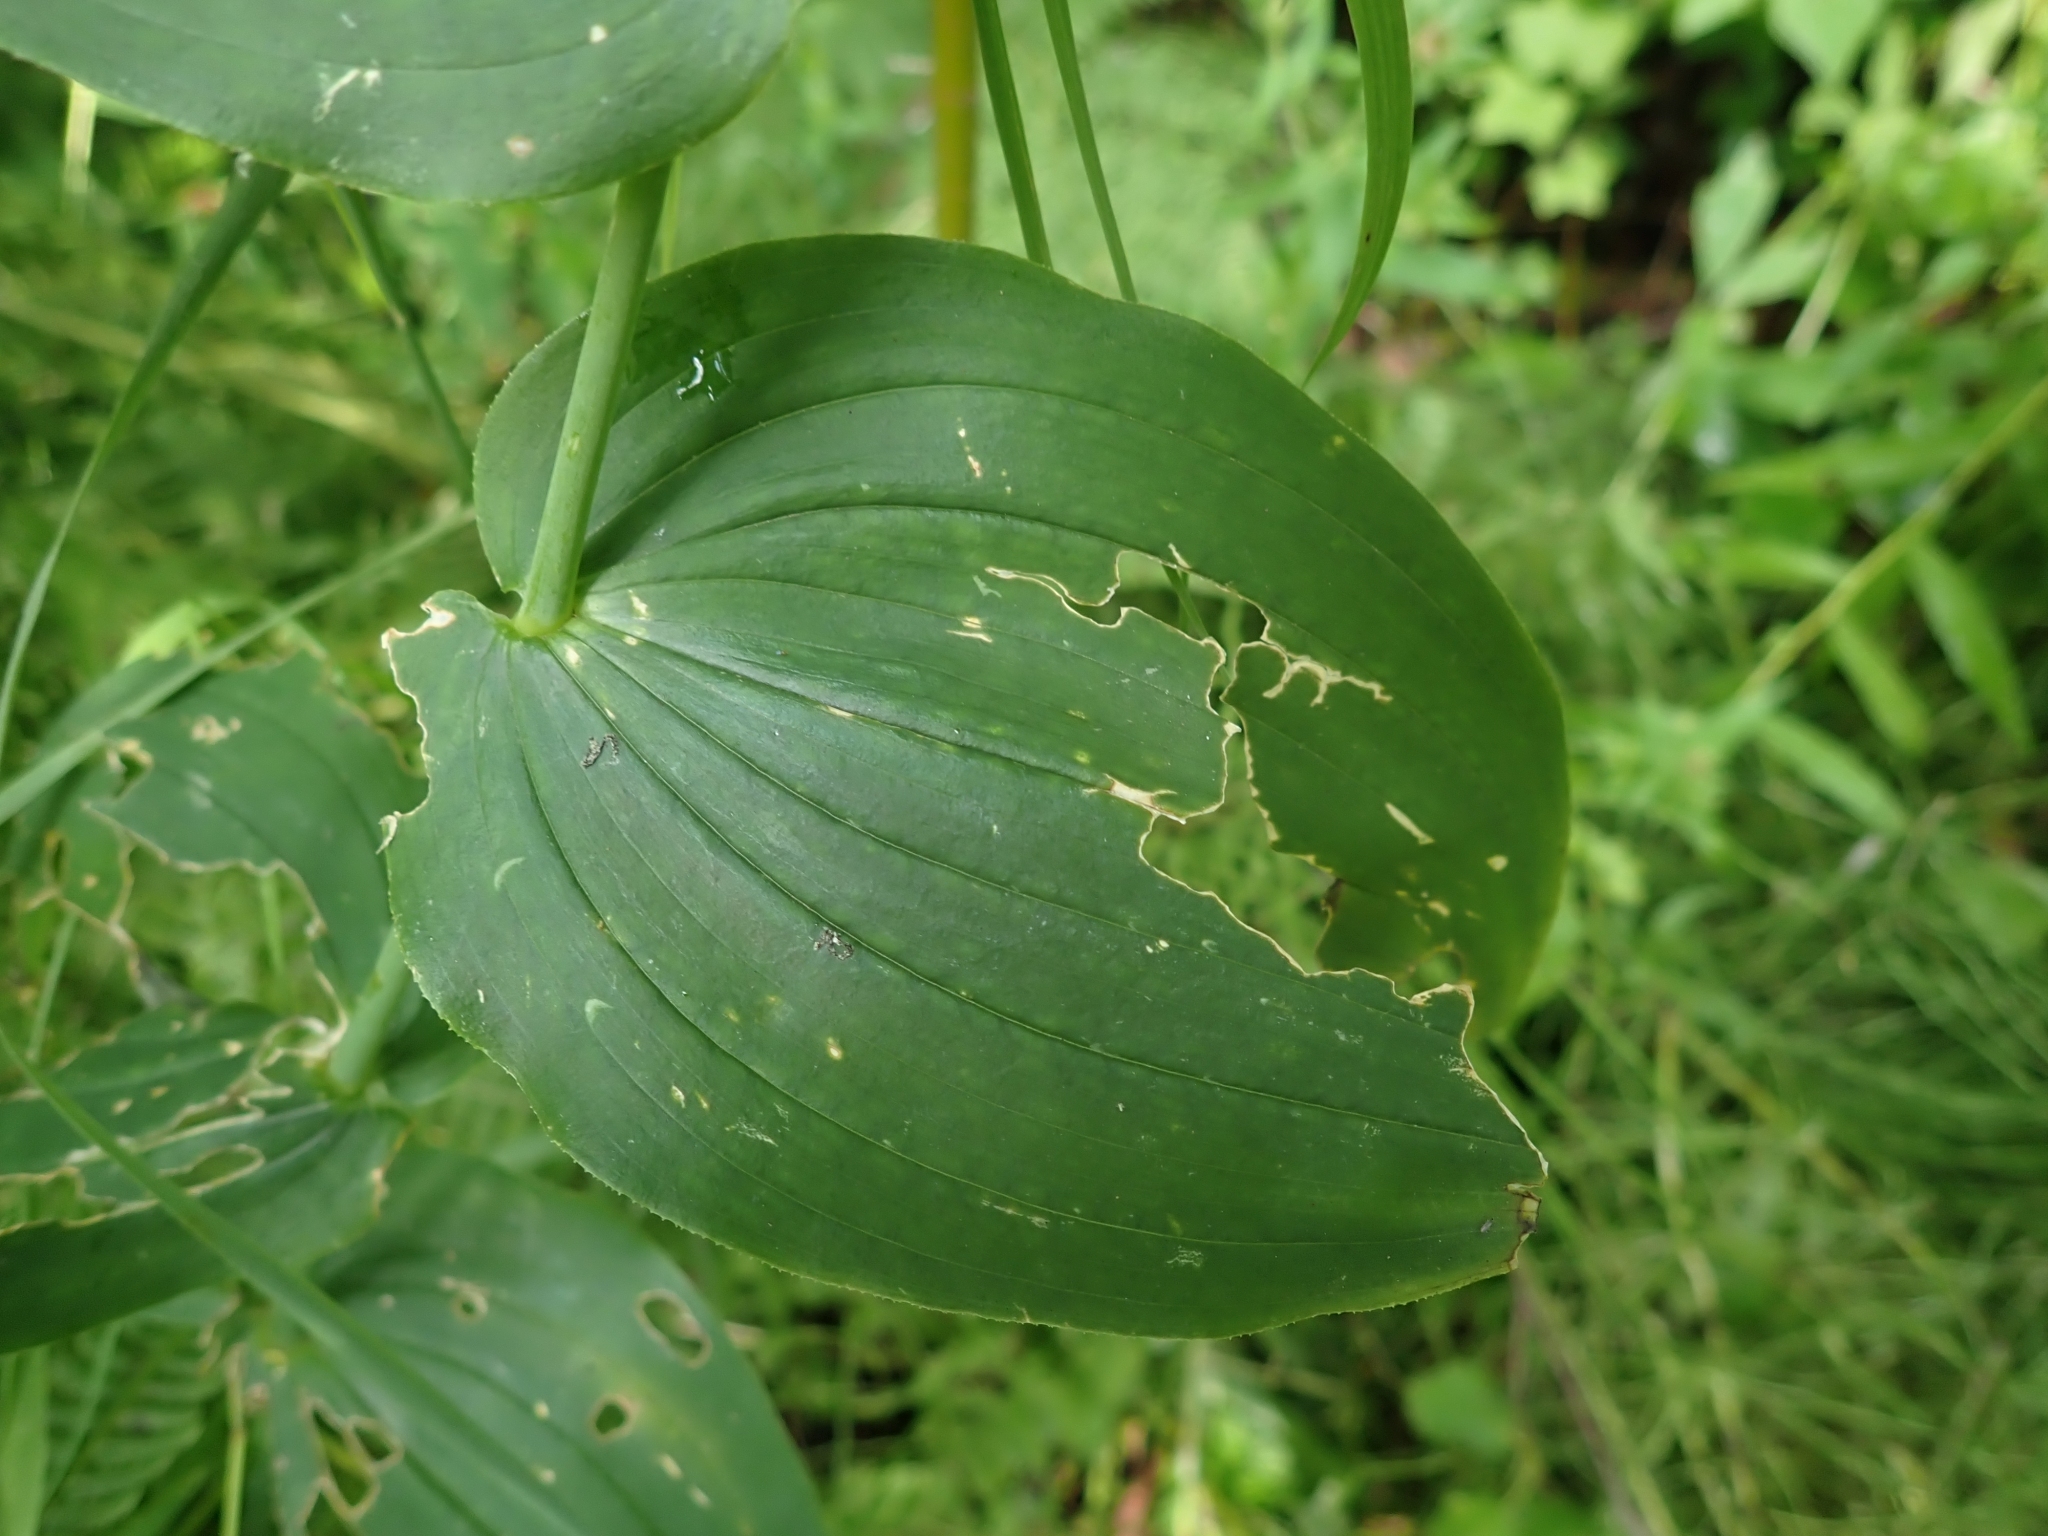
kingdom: Plantae
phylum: Tracheophyta
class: Liliopsida
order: Liliales
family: Liliaceae
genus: Streptopus
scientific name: Streptopus amplexifolius
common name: Clasp twisted stalk
